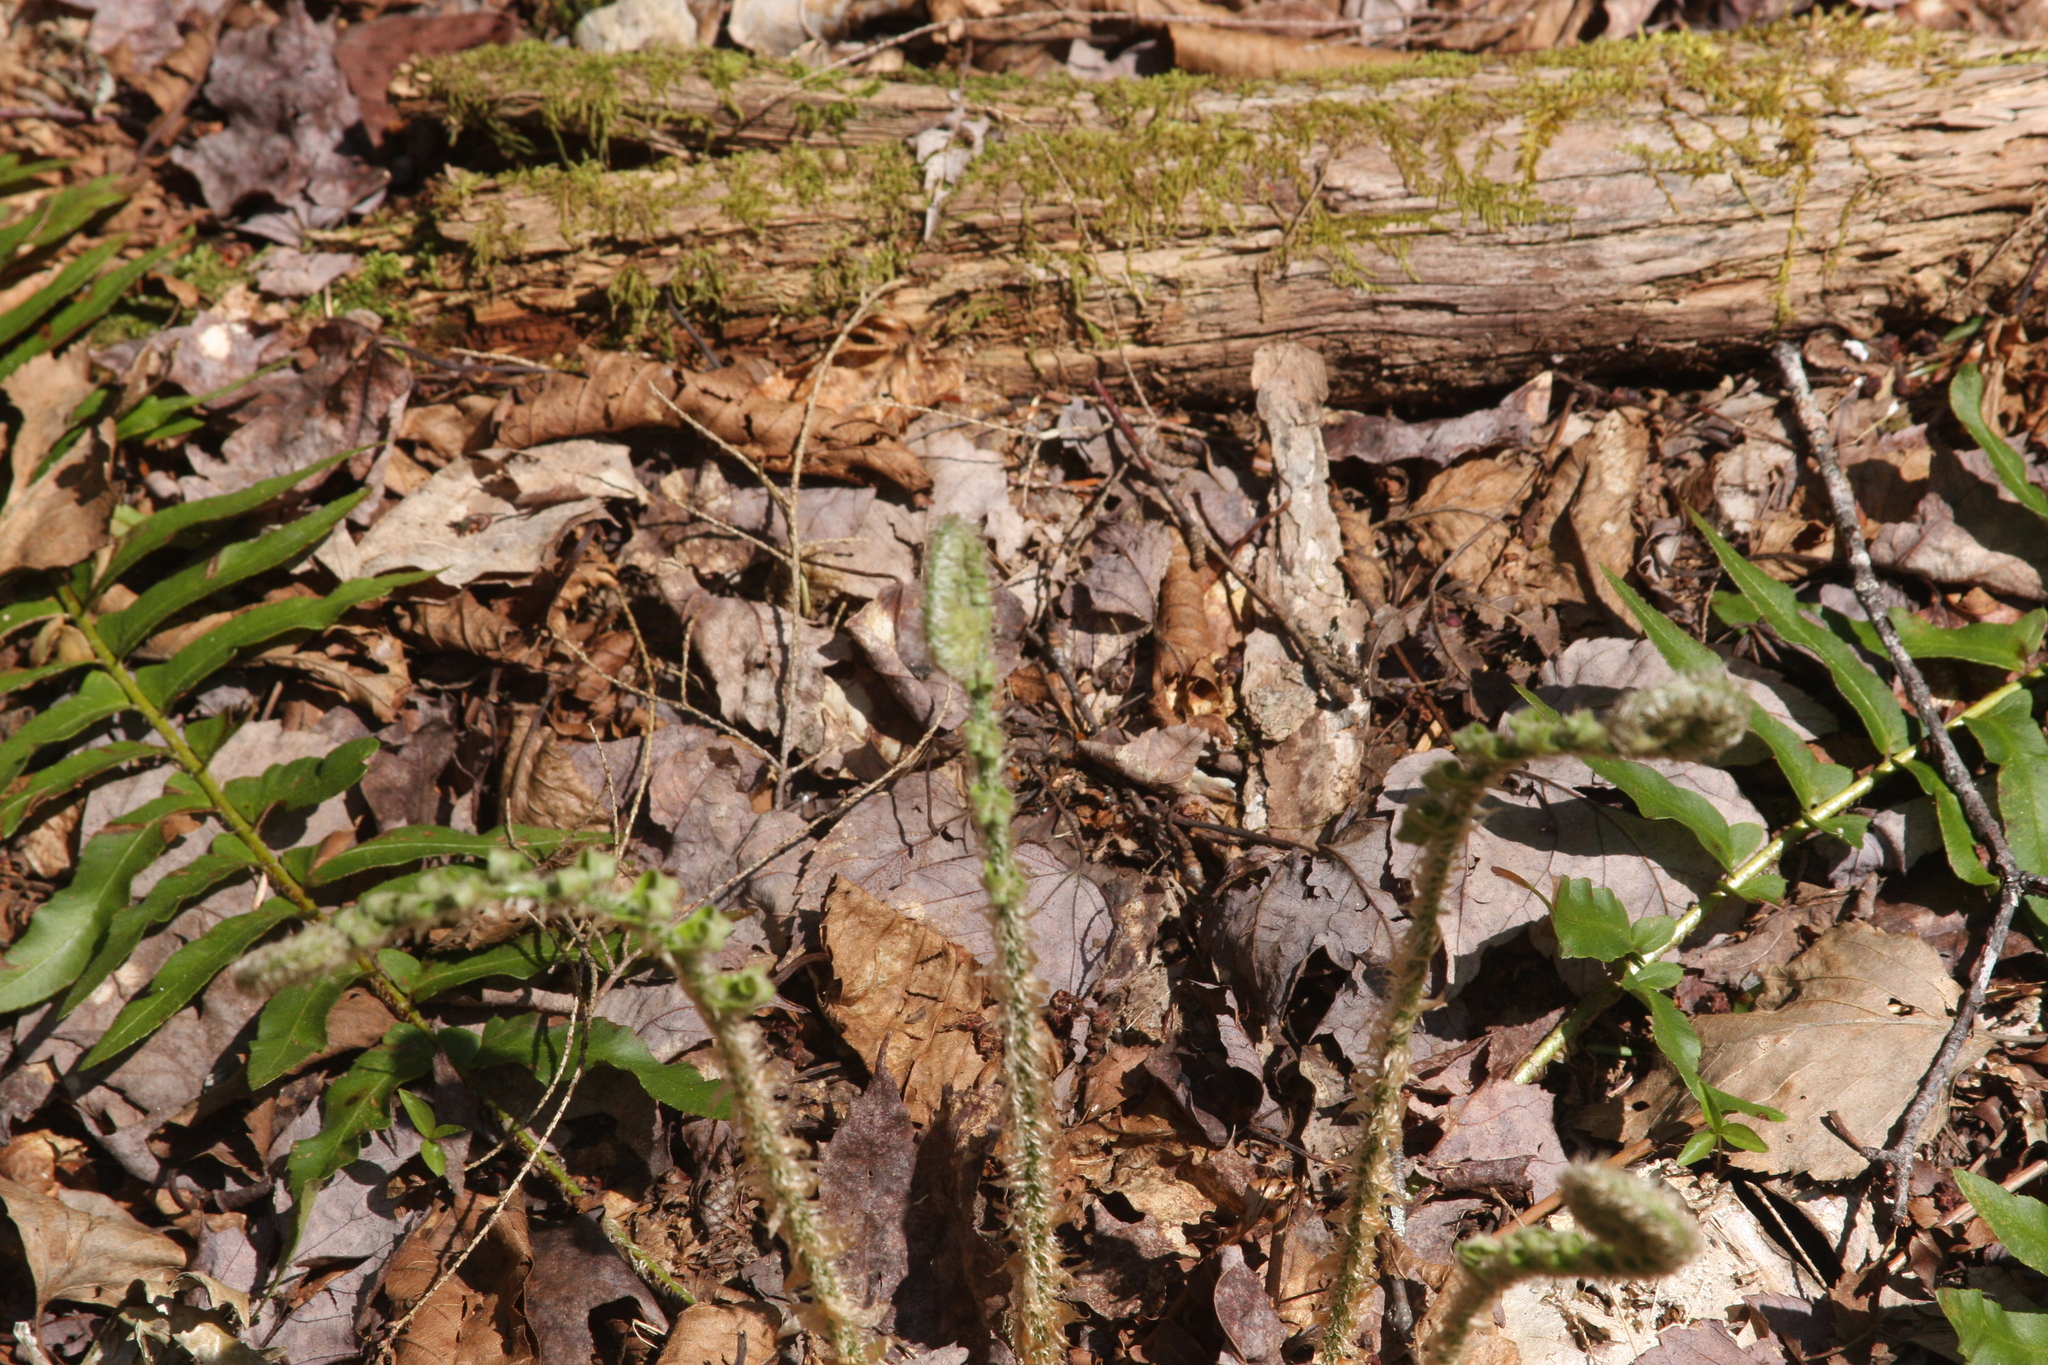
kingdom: Plantae
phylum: Tracheophyta
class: Polypodiopsida
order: Polypodiales
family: Dryopteridaceae
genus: Polystichum
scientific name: Polystichum acrostichoides
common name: Christmas fern
